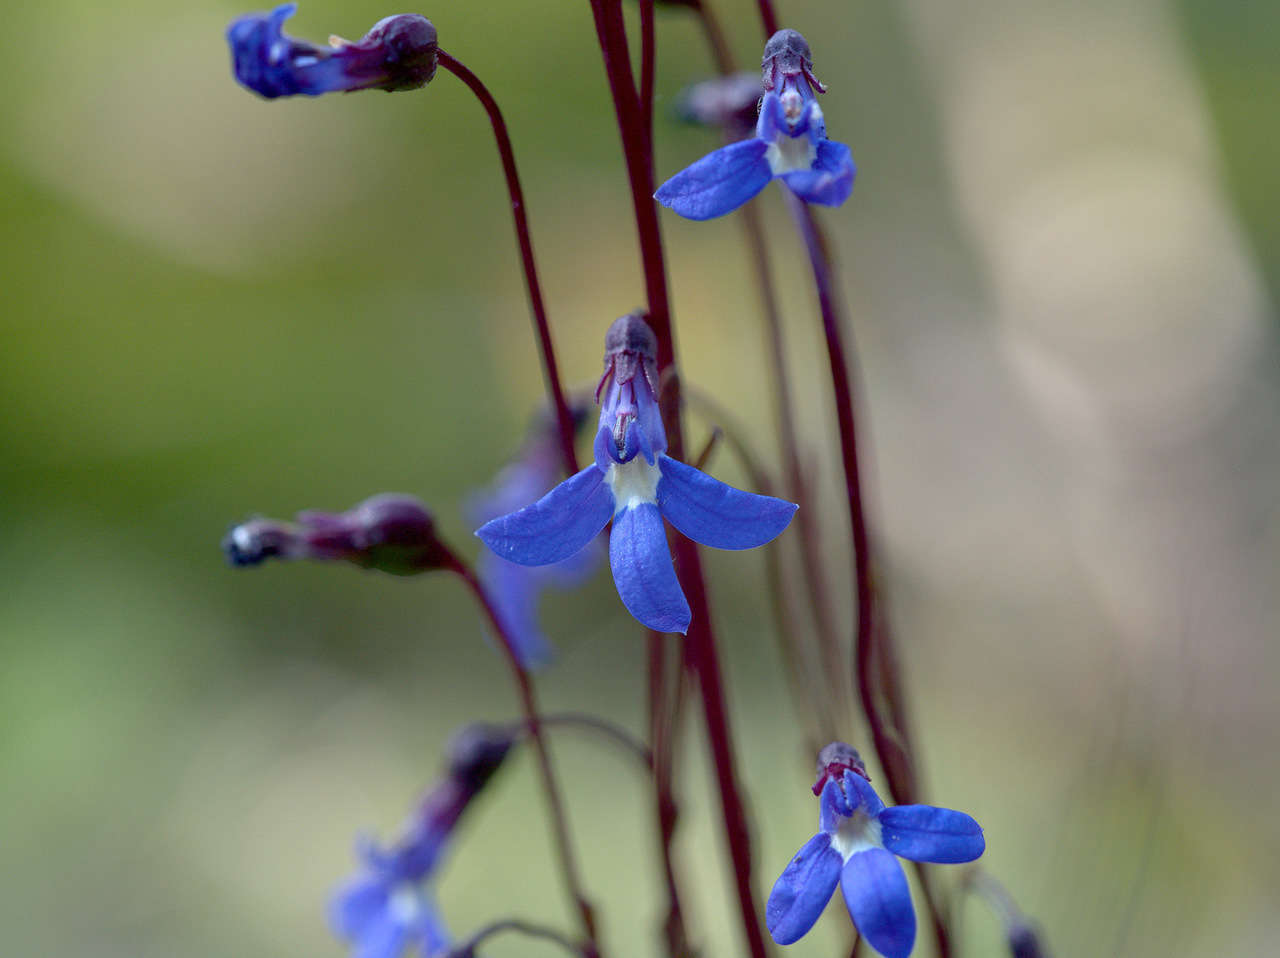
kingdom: Plantae
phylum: Tracheophyta
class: Magnoliopsida
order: Asterales
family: Campanulaceae
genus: Lobelia
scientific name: Lobelia rhombifolia
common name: Tufted lobelia
